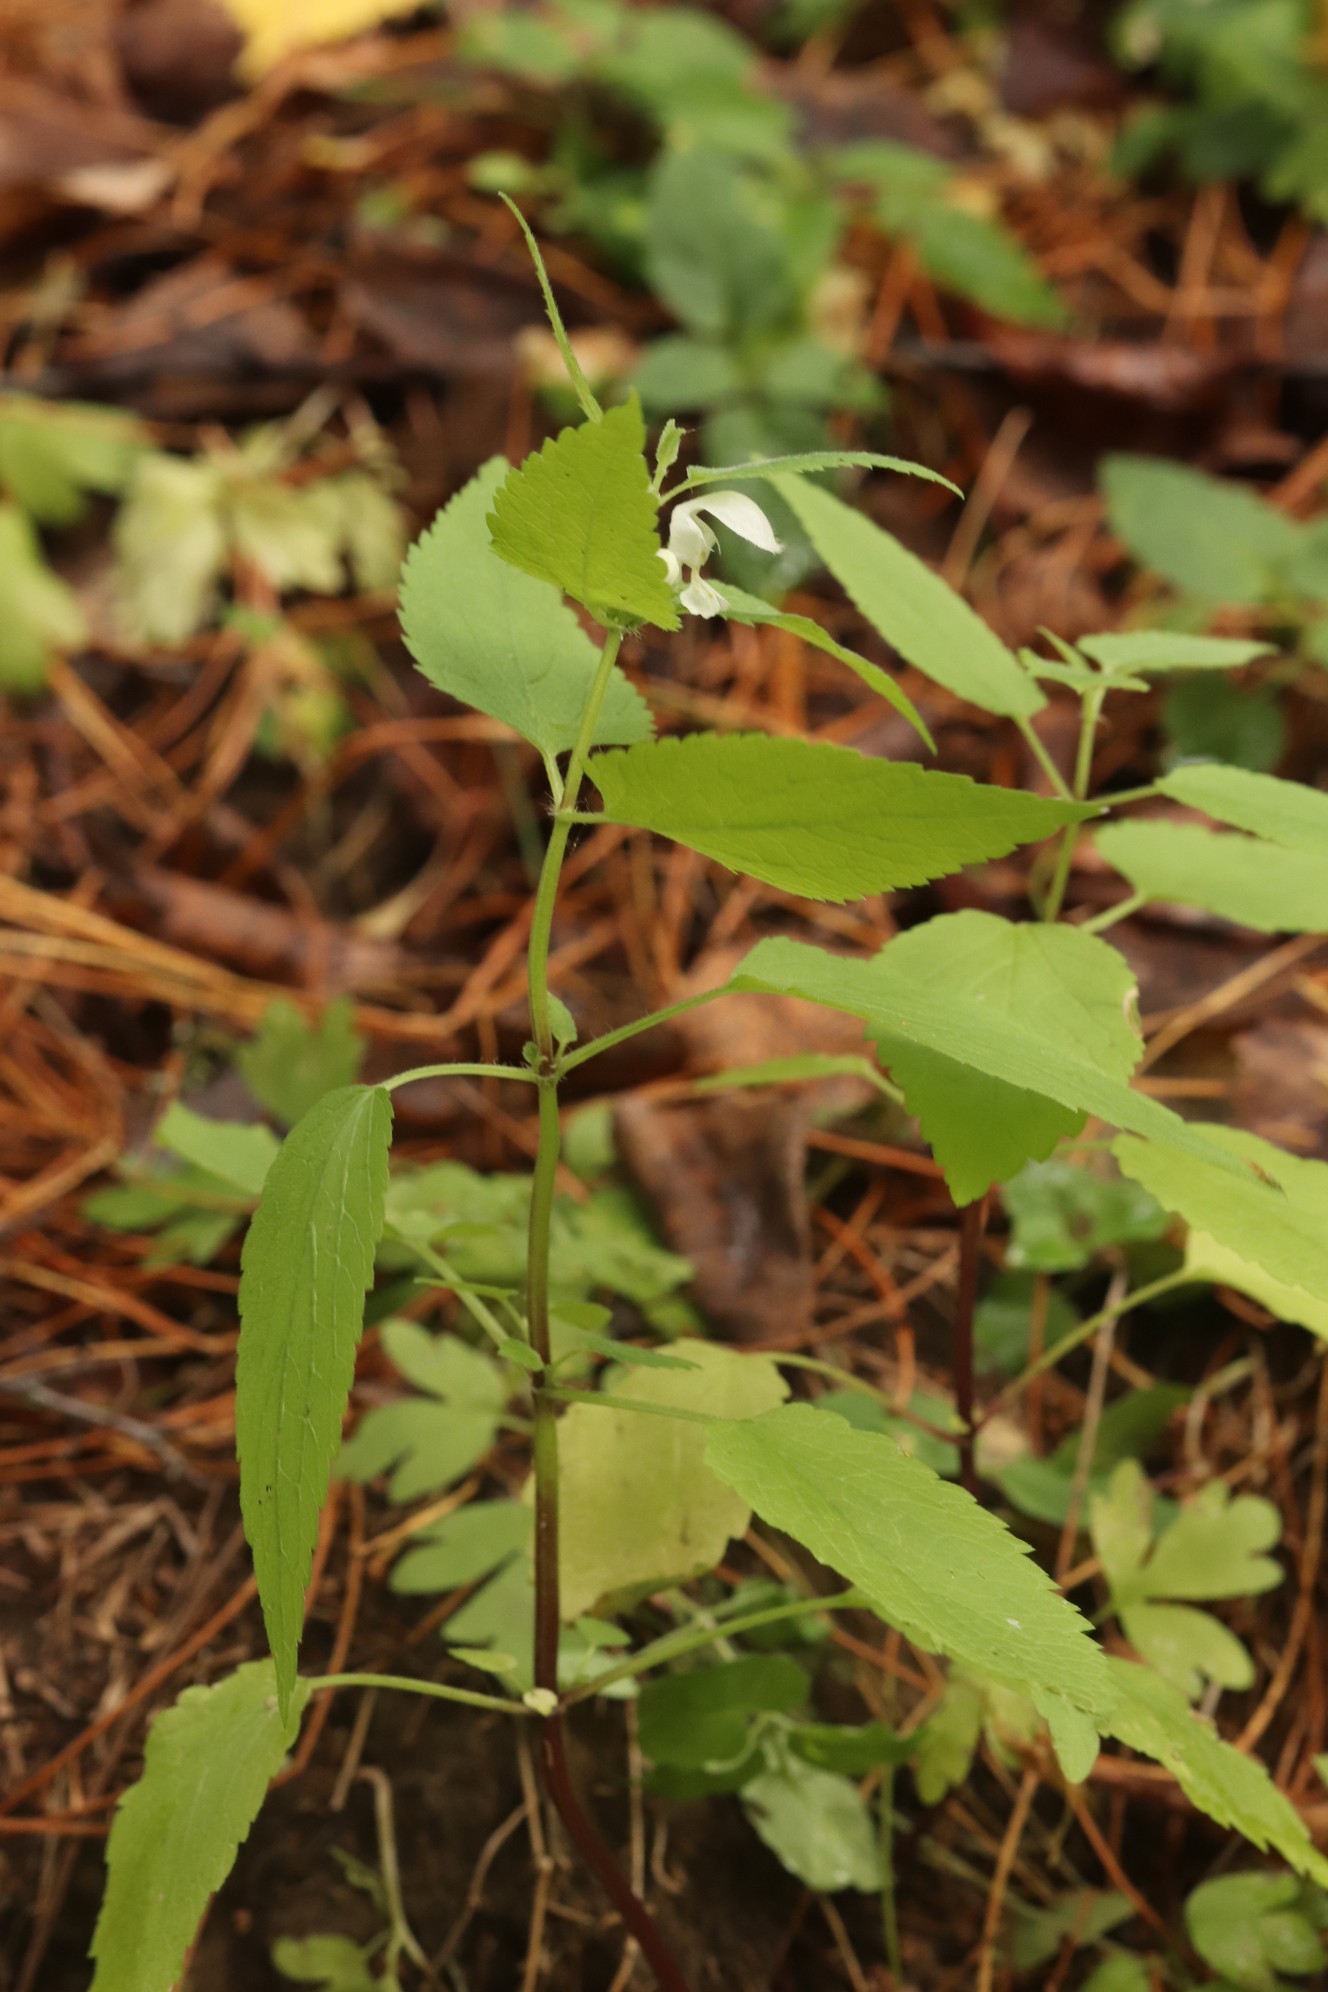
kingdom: Plantae
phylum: Tracheophyta
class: Magnoliopsida
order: Lamiales
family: Lamiaceae
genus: Lamium
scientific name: Lamium album
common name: White dead-nettle
